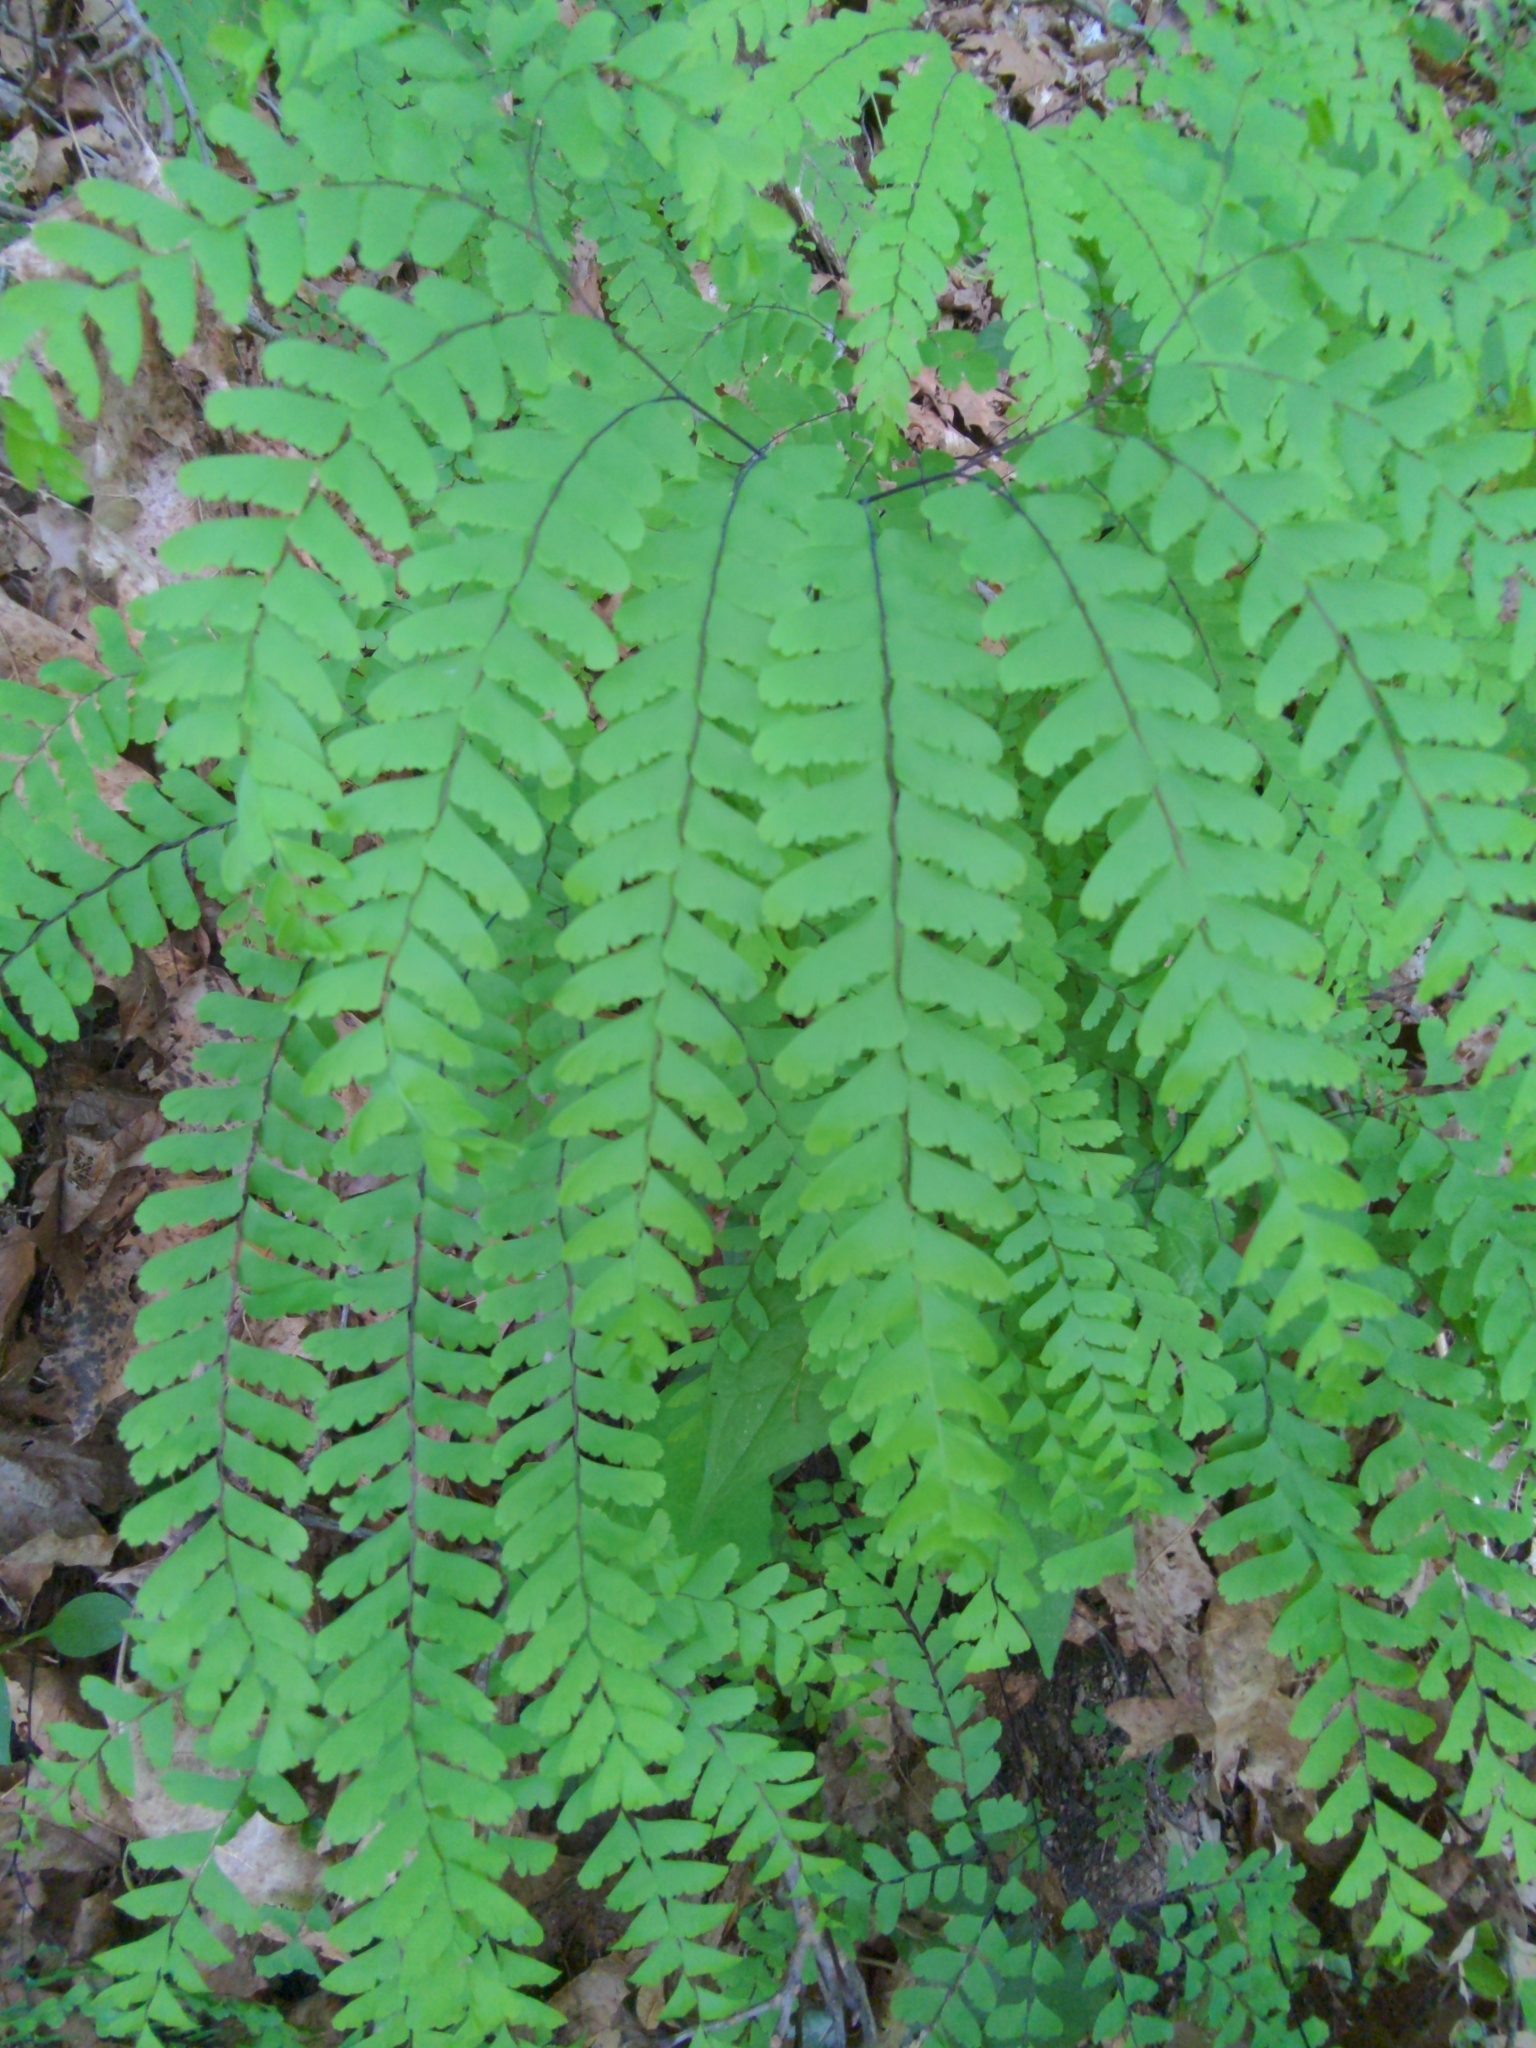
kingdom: Plantae
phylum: Tracheophyta
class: Polypodiopsida
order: Polypodiales
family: Pteridaceae
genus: Adiantum
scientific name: Adiantum pedatum
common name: Five-finger fern
